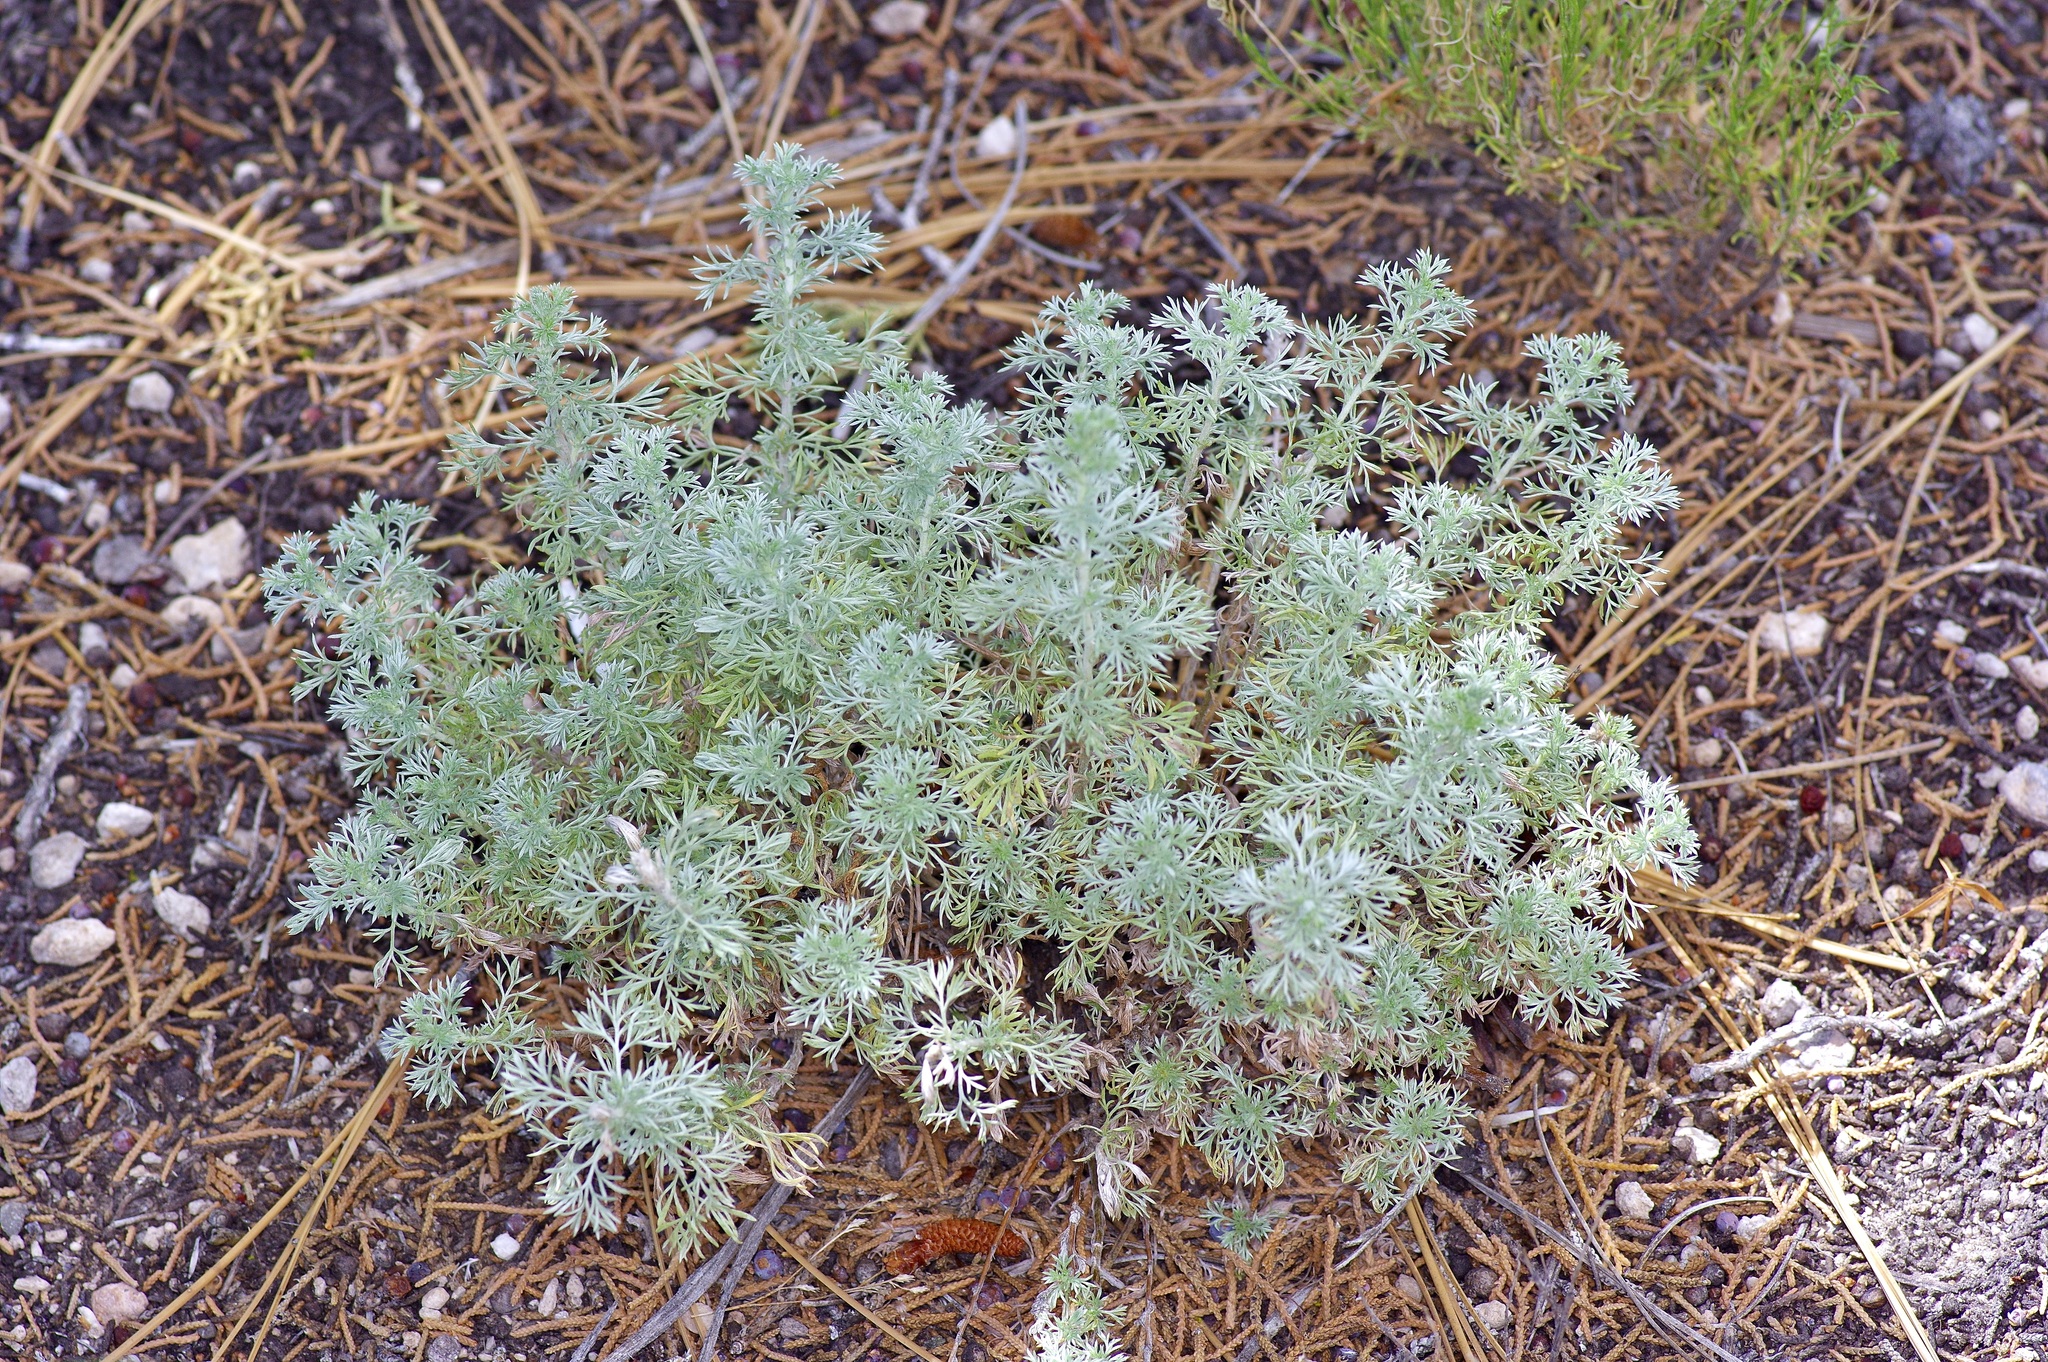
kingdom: Plantae
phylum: Tracheophyta
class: Magnoliopsida
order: Asterales
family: Asteraceae
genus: Artemisia
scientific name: Artemisia frigida
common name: Prairie sagewort
